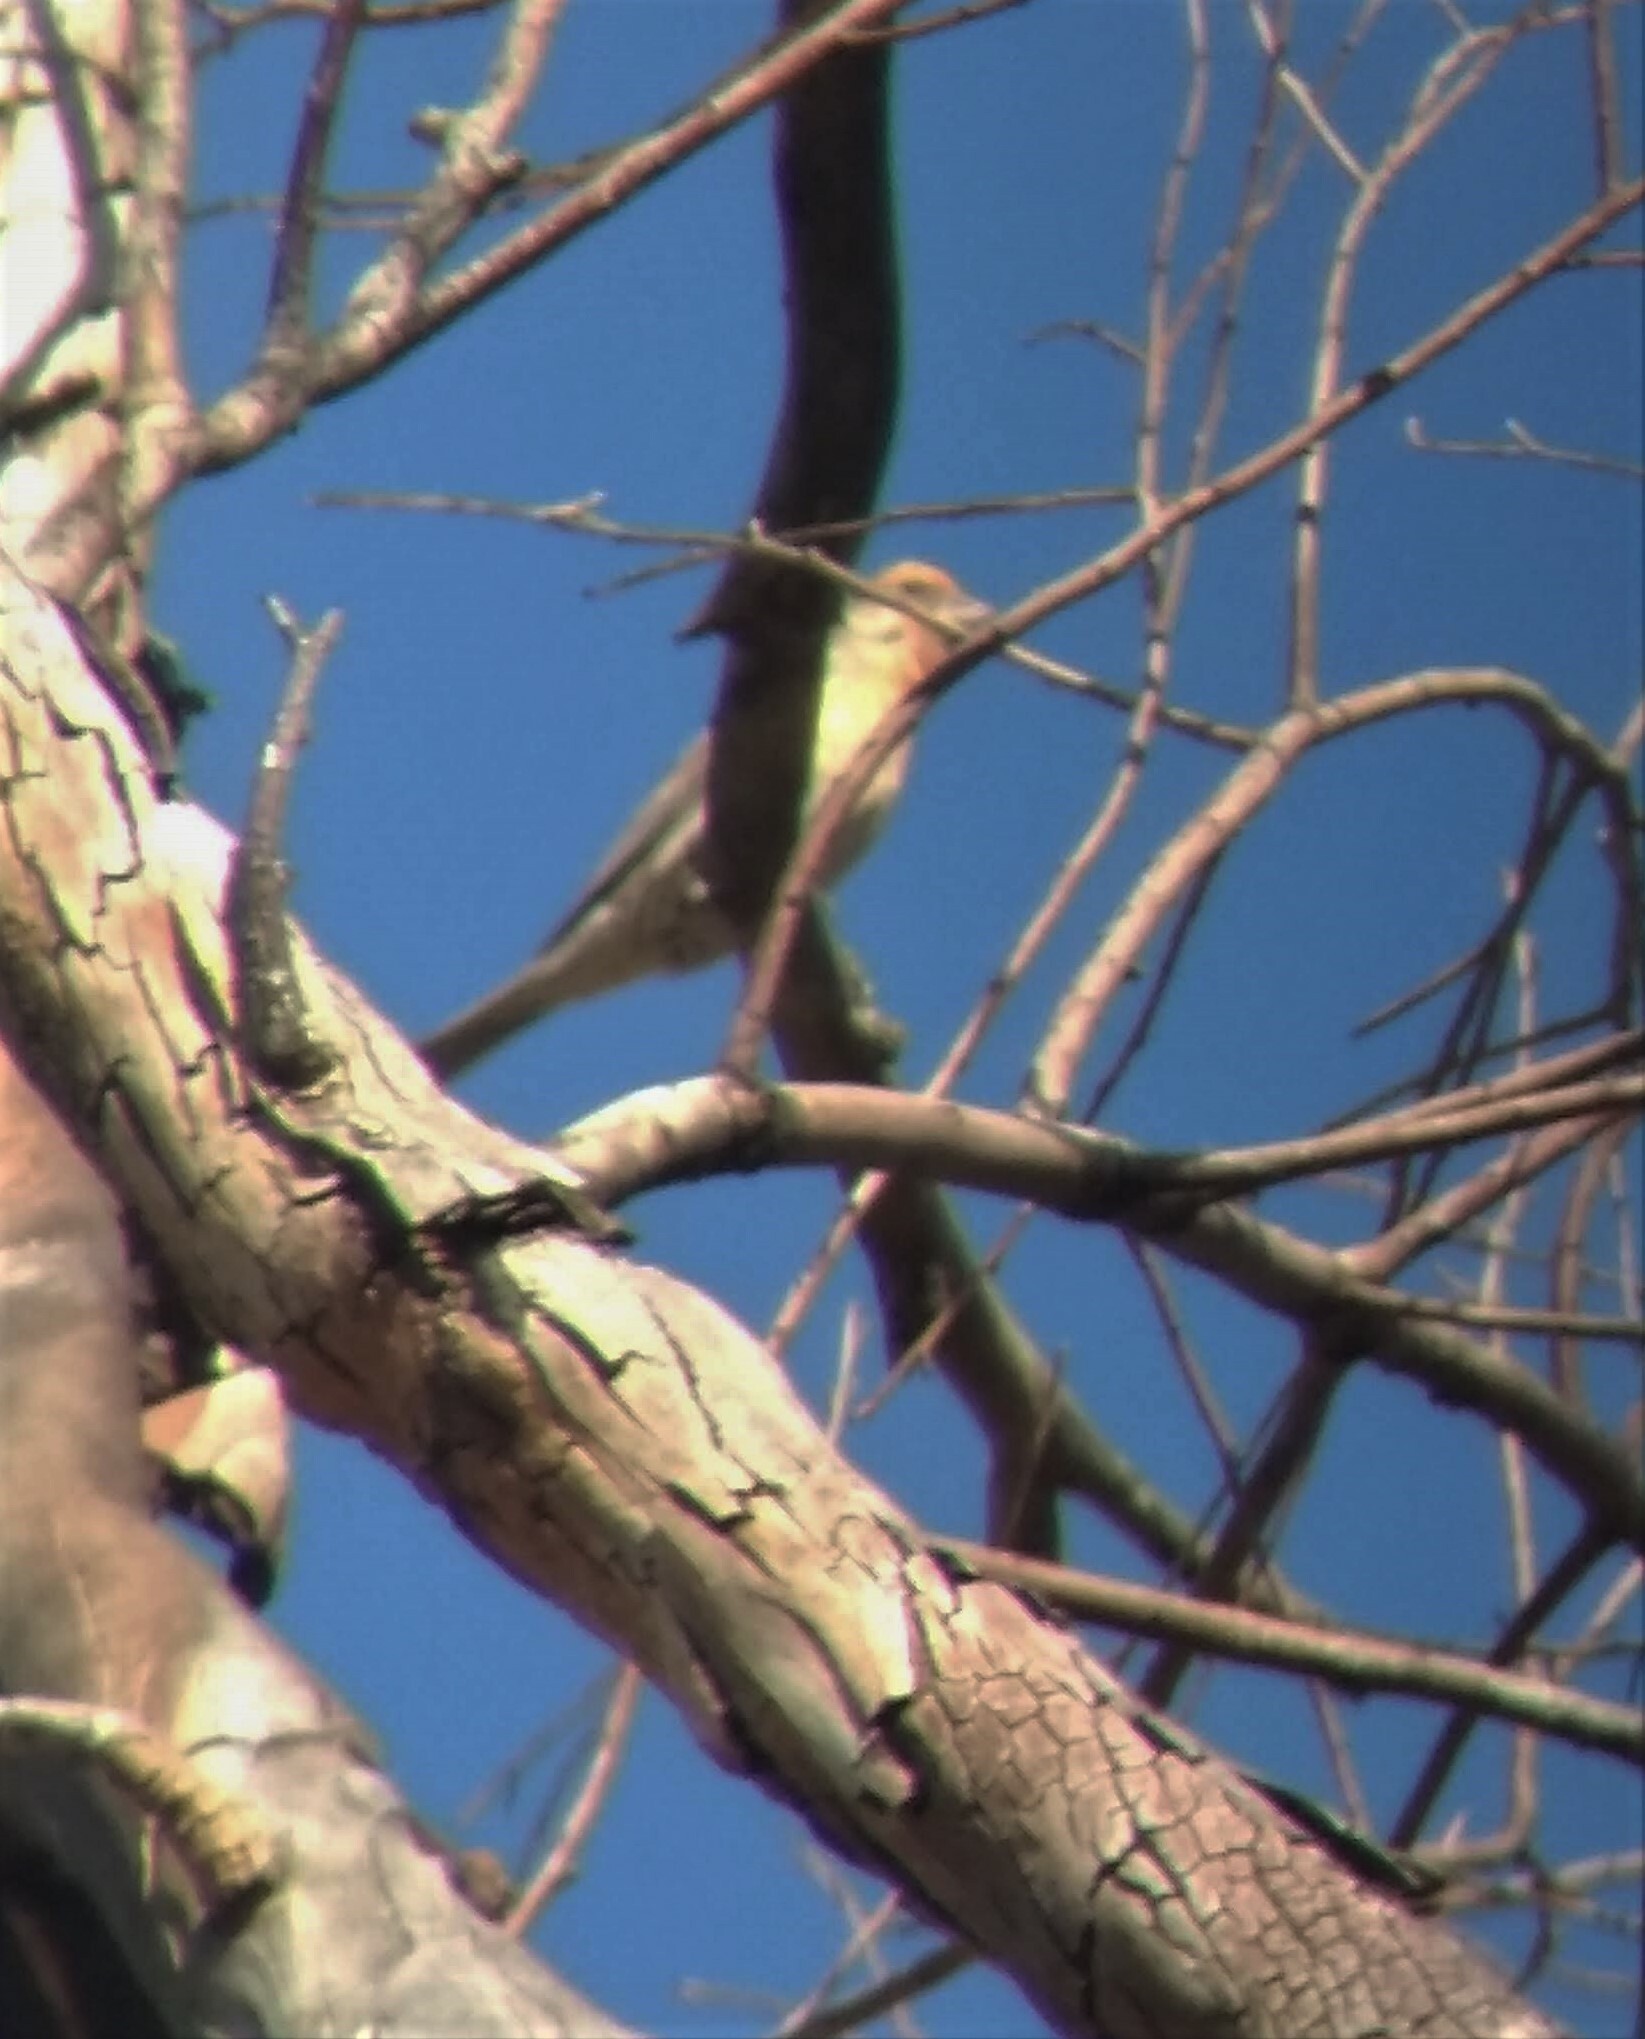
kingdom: Animalia
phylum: Chordata
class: Aves
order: Passeriformes
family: Fringillidae
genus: Haemorhous
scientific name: Haemorhous mexicanus
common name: House finch
